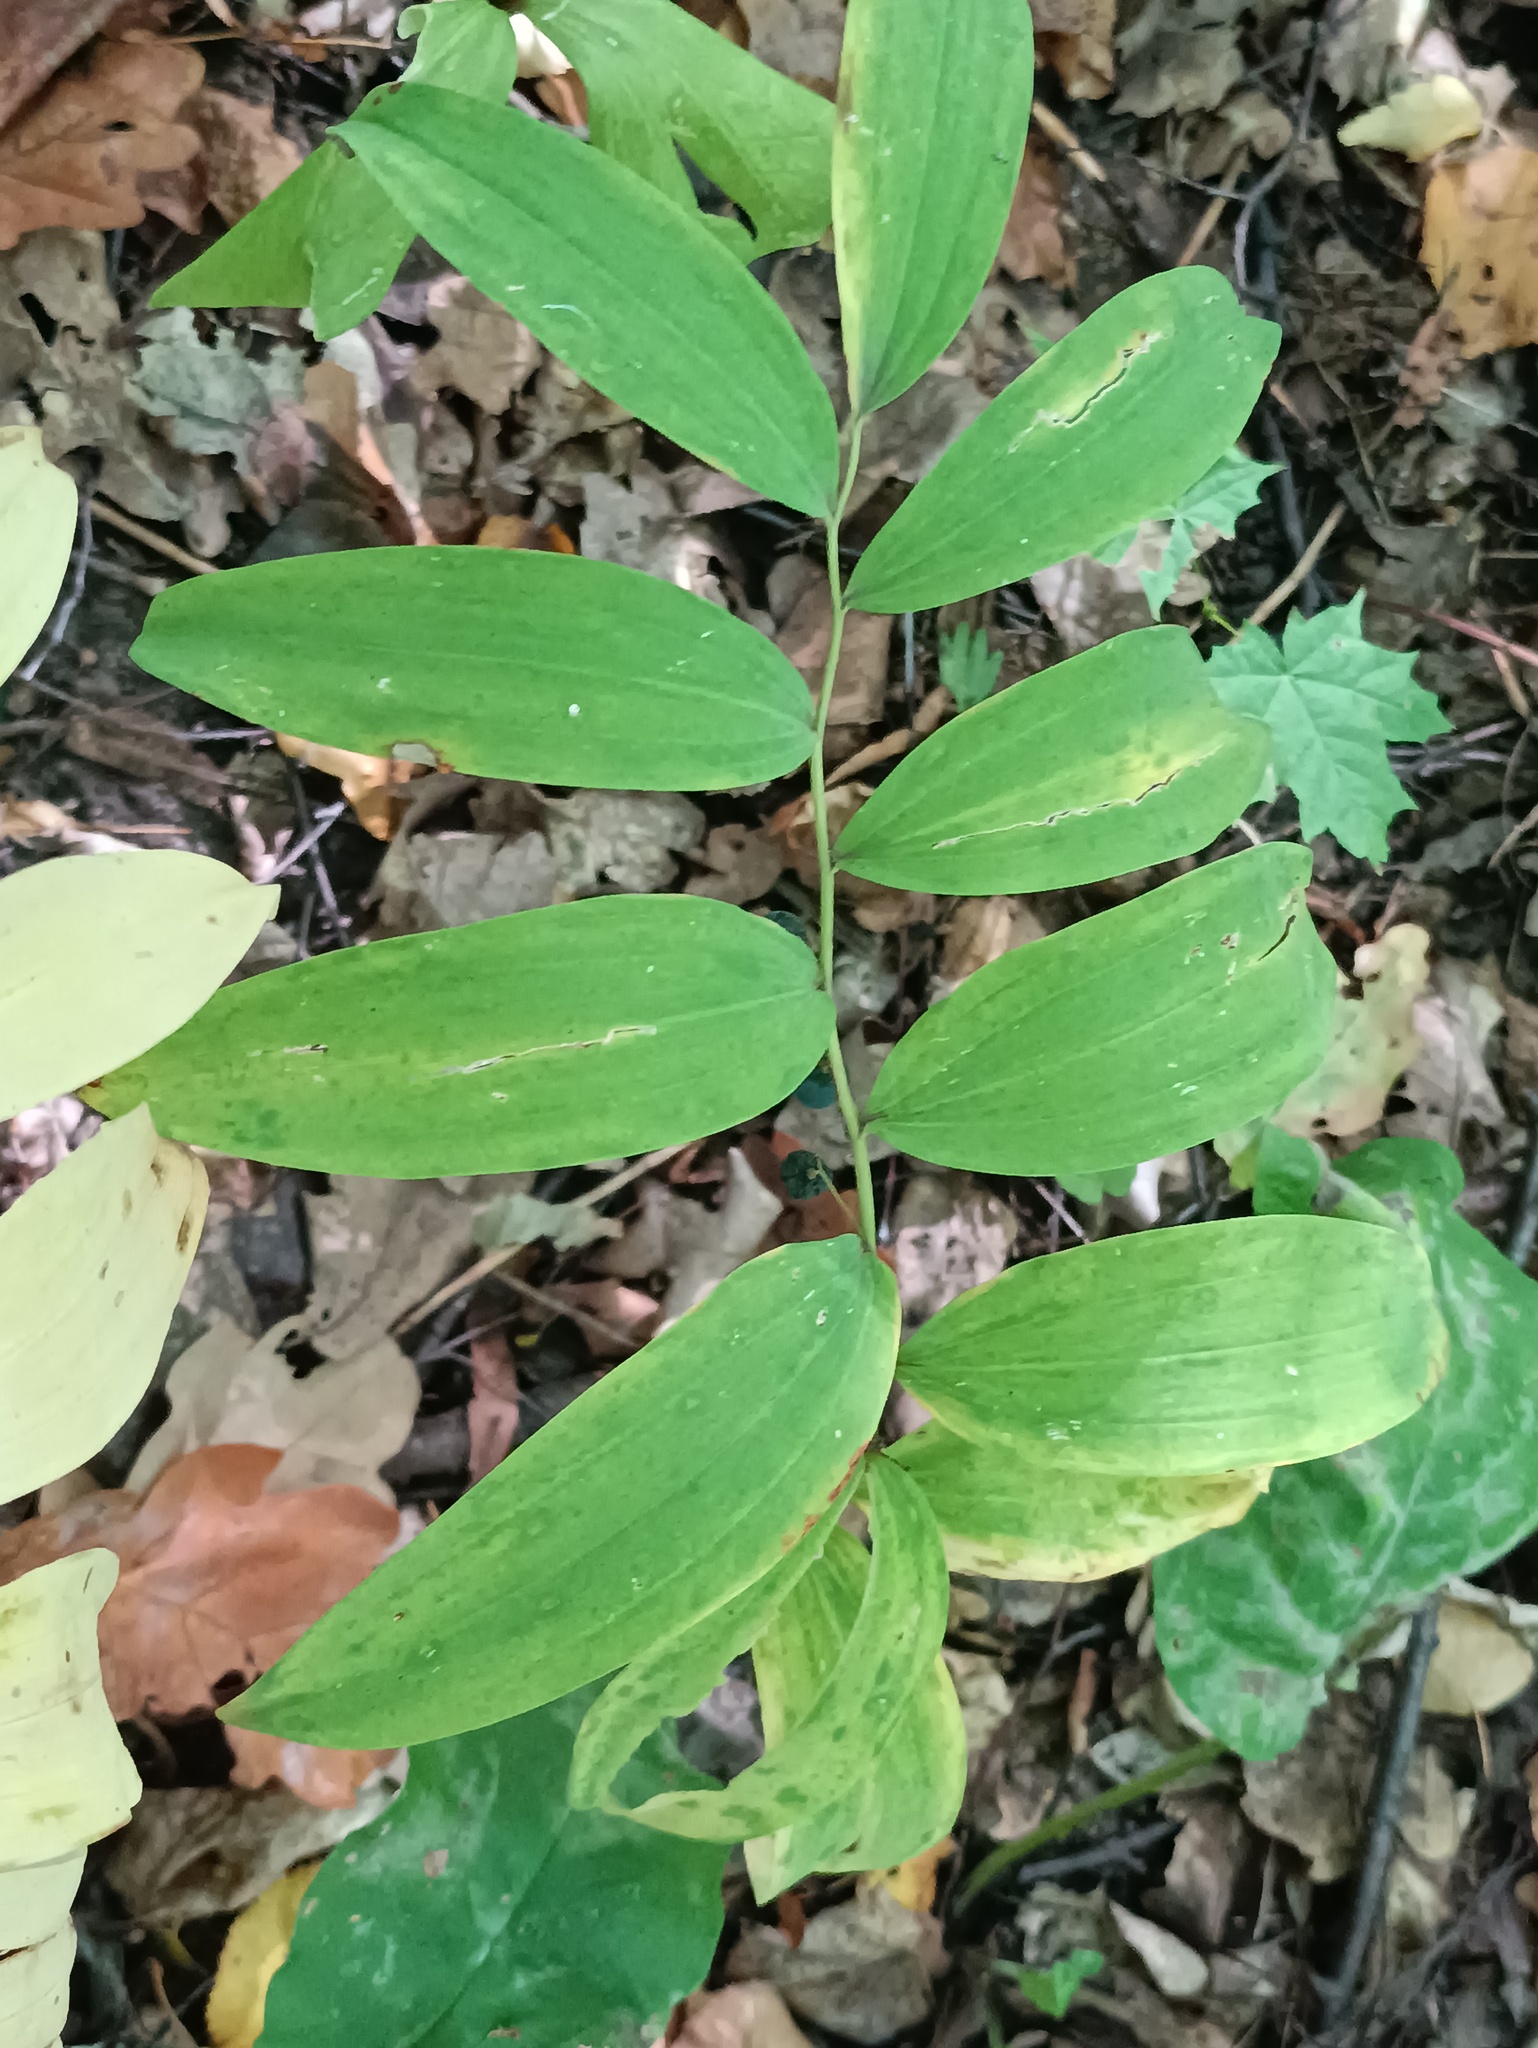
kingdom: Plantae
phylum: Tracheophyta
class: Liliopsida
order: Asparagales
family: Asparagaceae
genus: Polygonatum
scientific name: Polygonatum multiflorum
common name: Solomon's-seal
